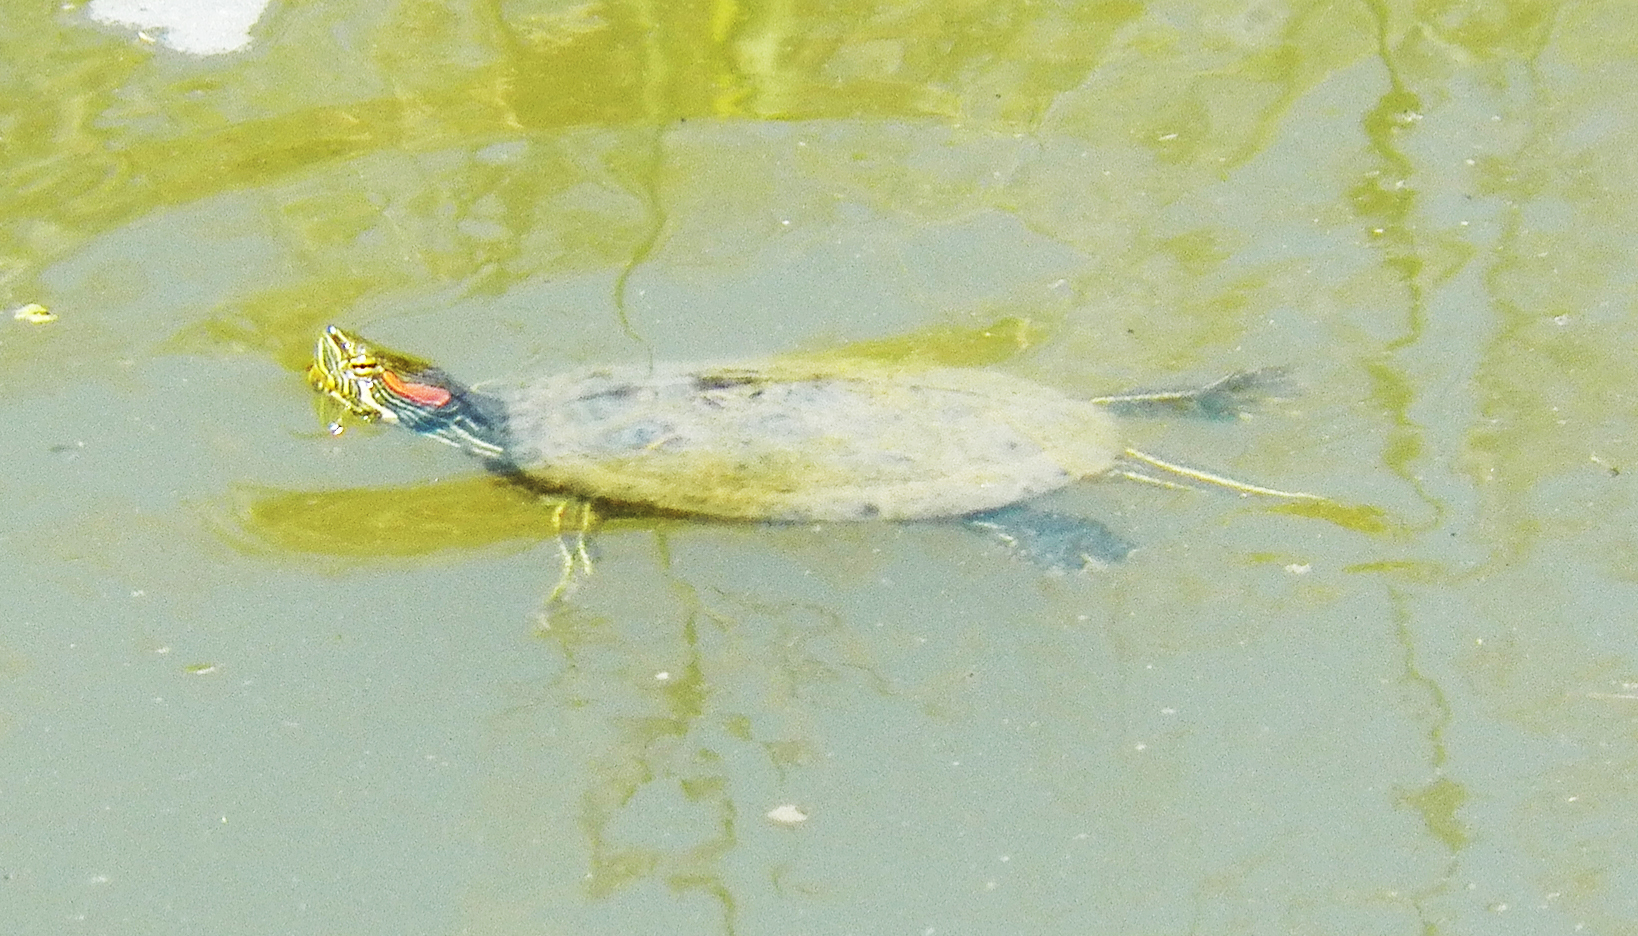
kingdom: Animalia
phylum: Chordata
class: Testudines
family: Emydidae
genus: Trachemys
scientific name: Trachemys scripta
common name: Slider
